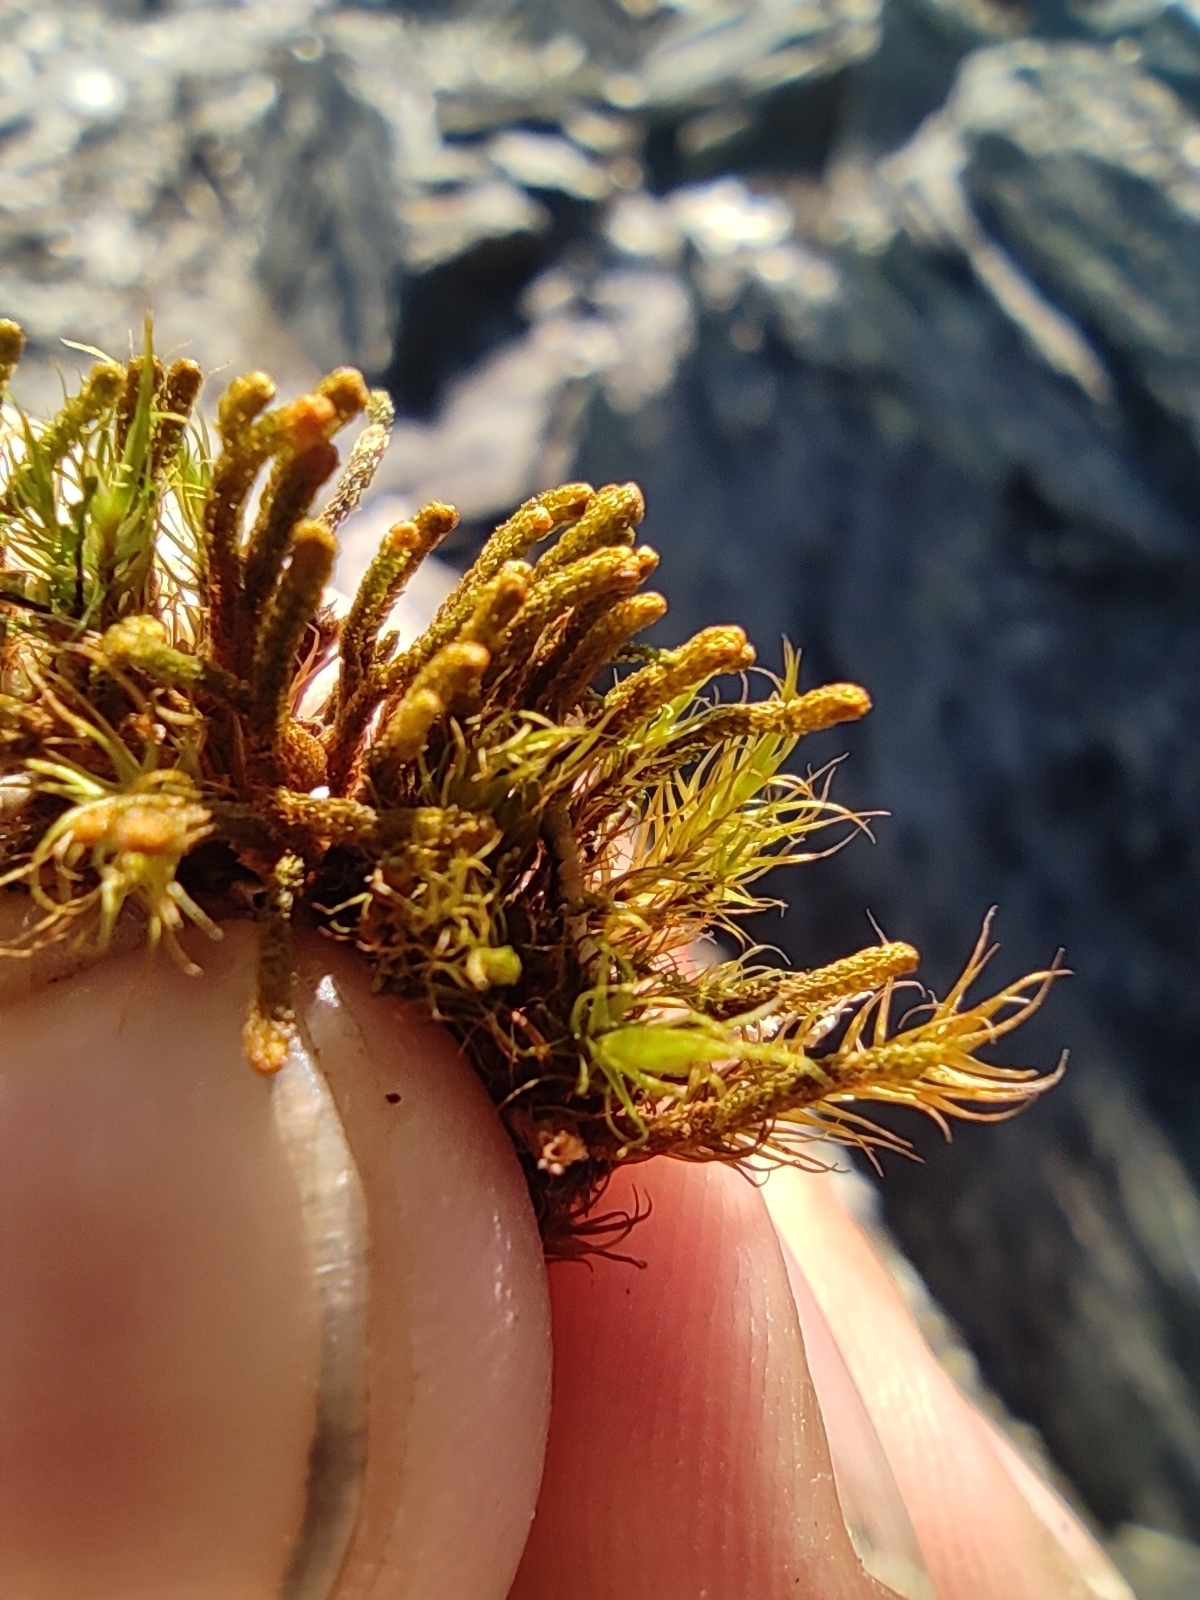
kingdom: Plantae
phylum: Marchantiophyta
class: Jungermanniopsida
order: Jungermanniales
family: Anastrophyllaceae
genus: Tetralophozia
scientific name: Tetralophozia setiformis
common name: Monster pawwort
